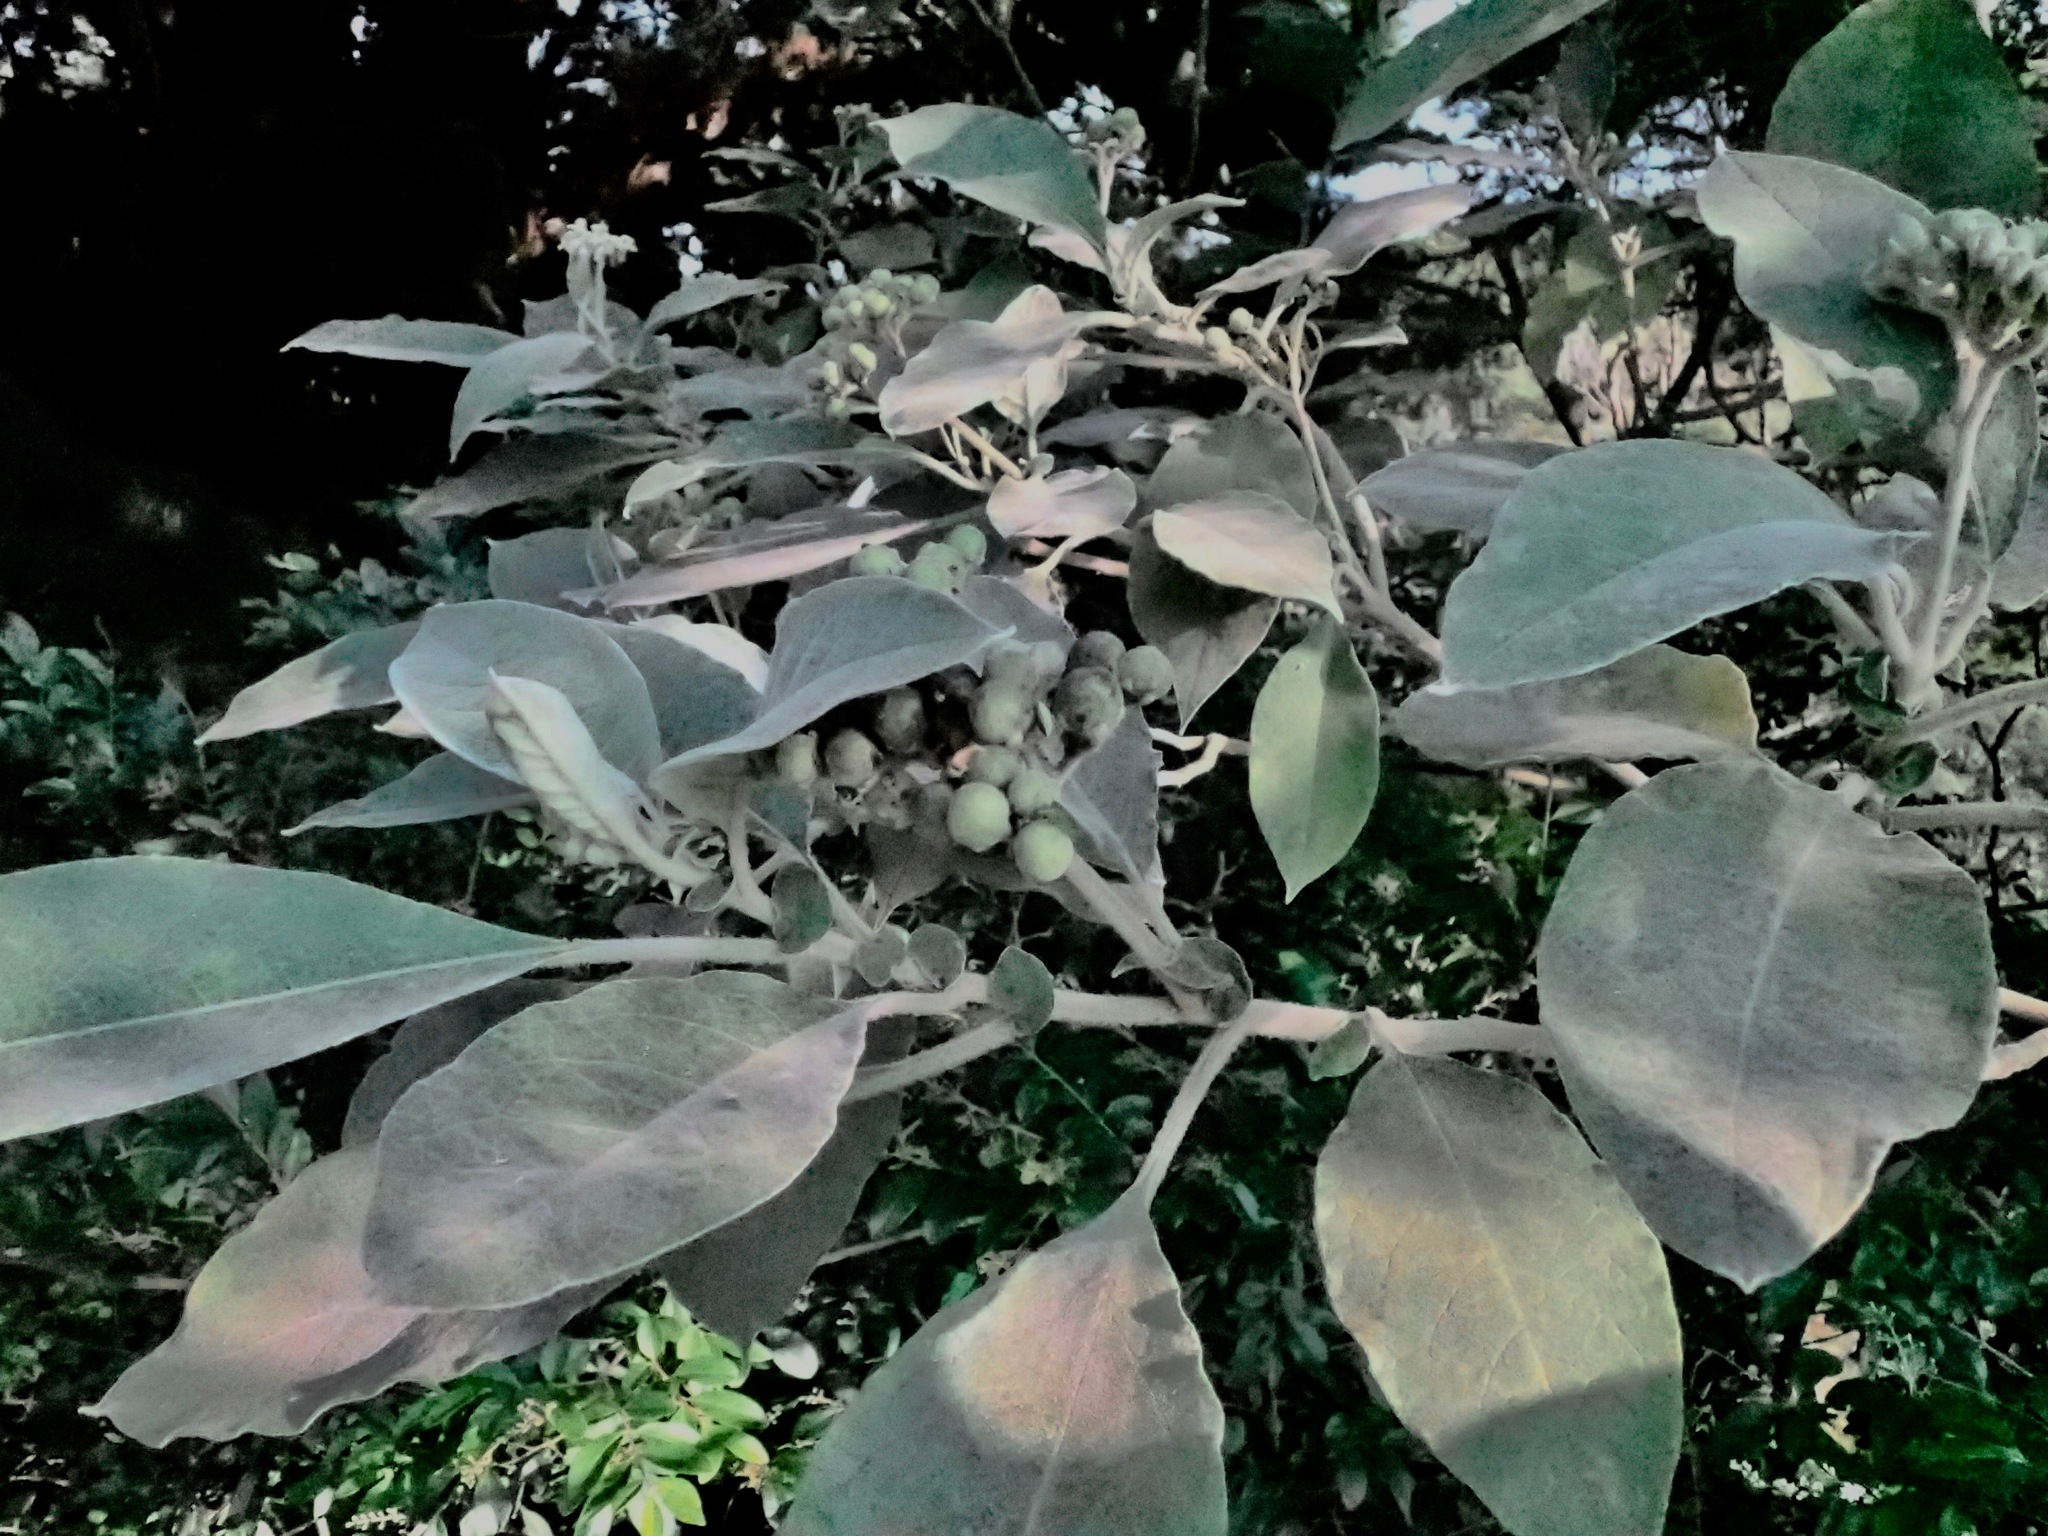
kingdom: Plantae
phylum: Tracheophyta
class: Magnoliopsida
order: Solanales
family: Solanaceae
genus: Solanum
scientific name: Solanum mauritianum
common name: Earleaf nightshade
